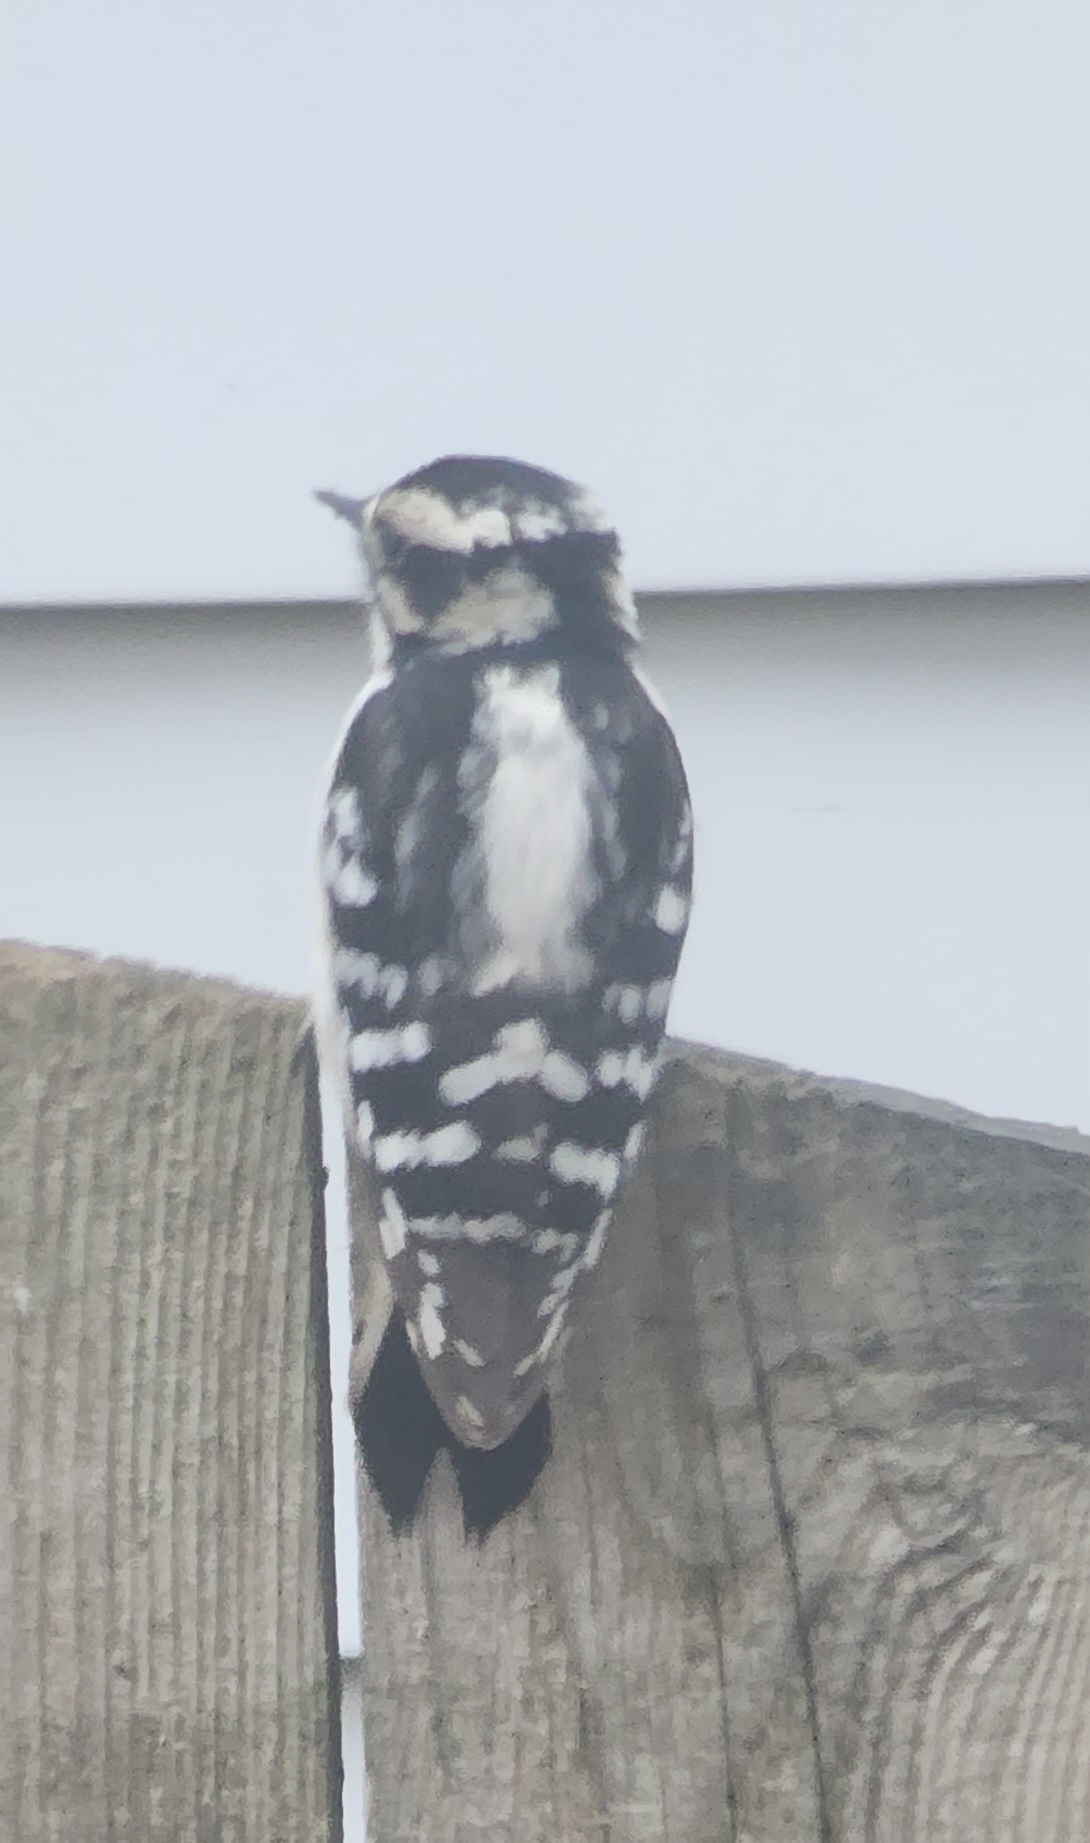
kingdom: Animalia
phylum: Chordata
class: Aves
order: Piciformes
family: Picidae
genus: Dryobates
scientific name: Dryobates pubescens
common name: Downy woodpecker
